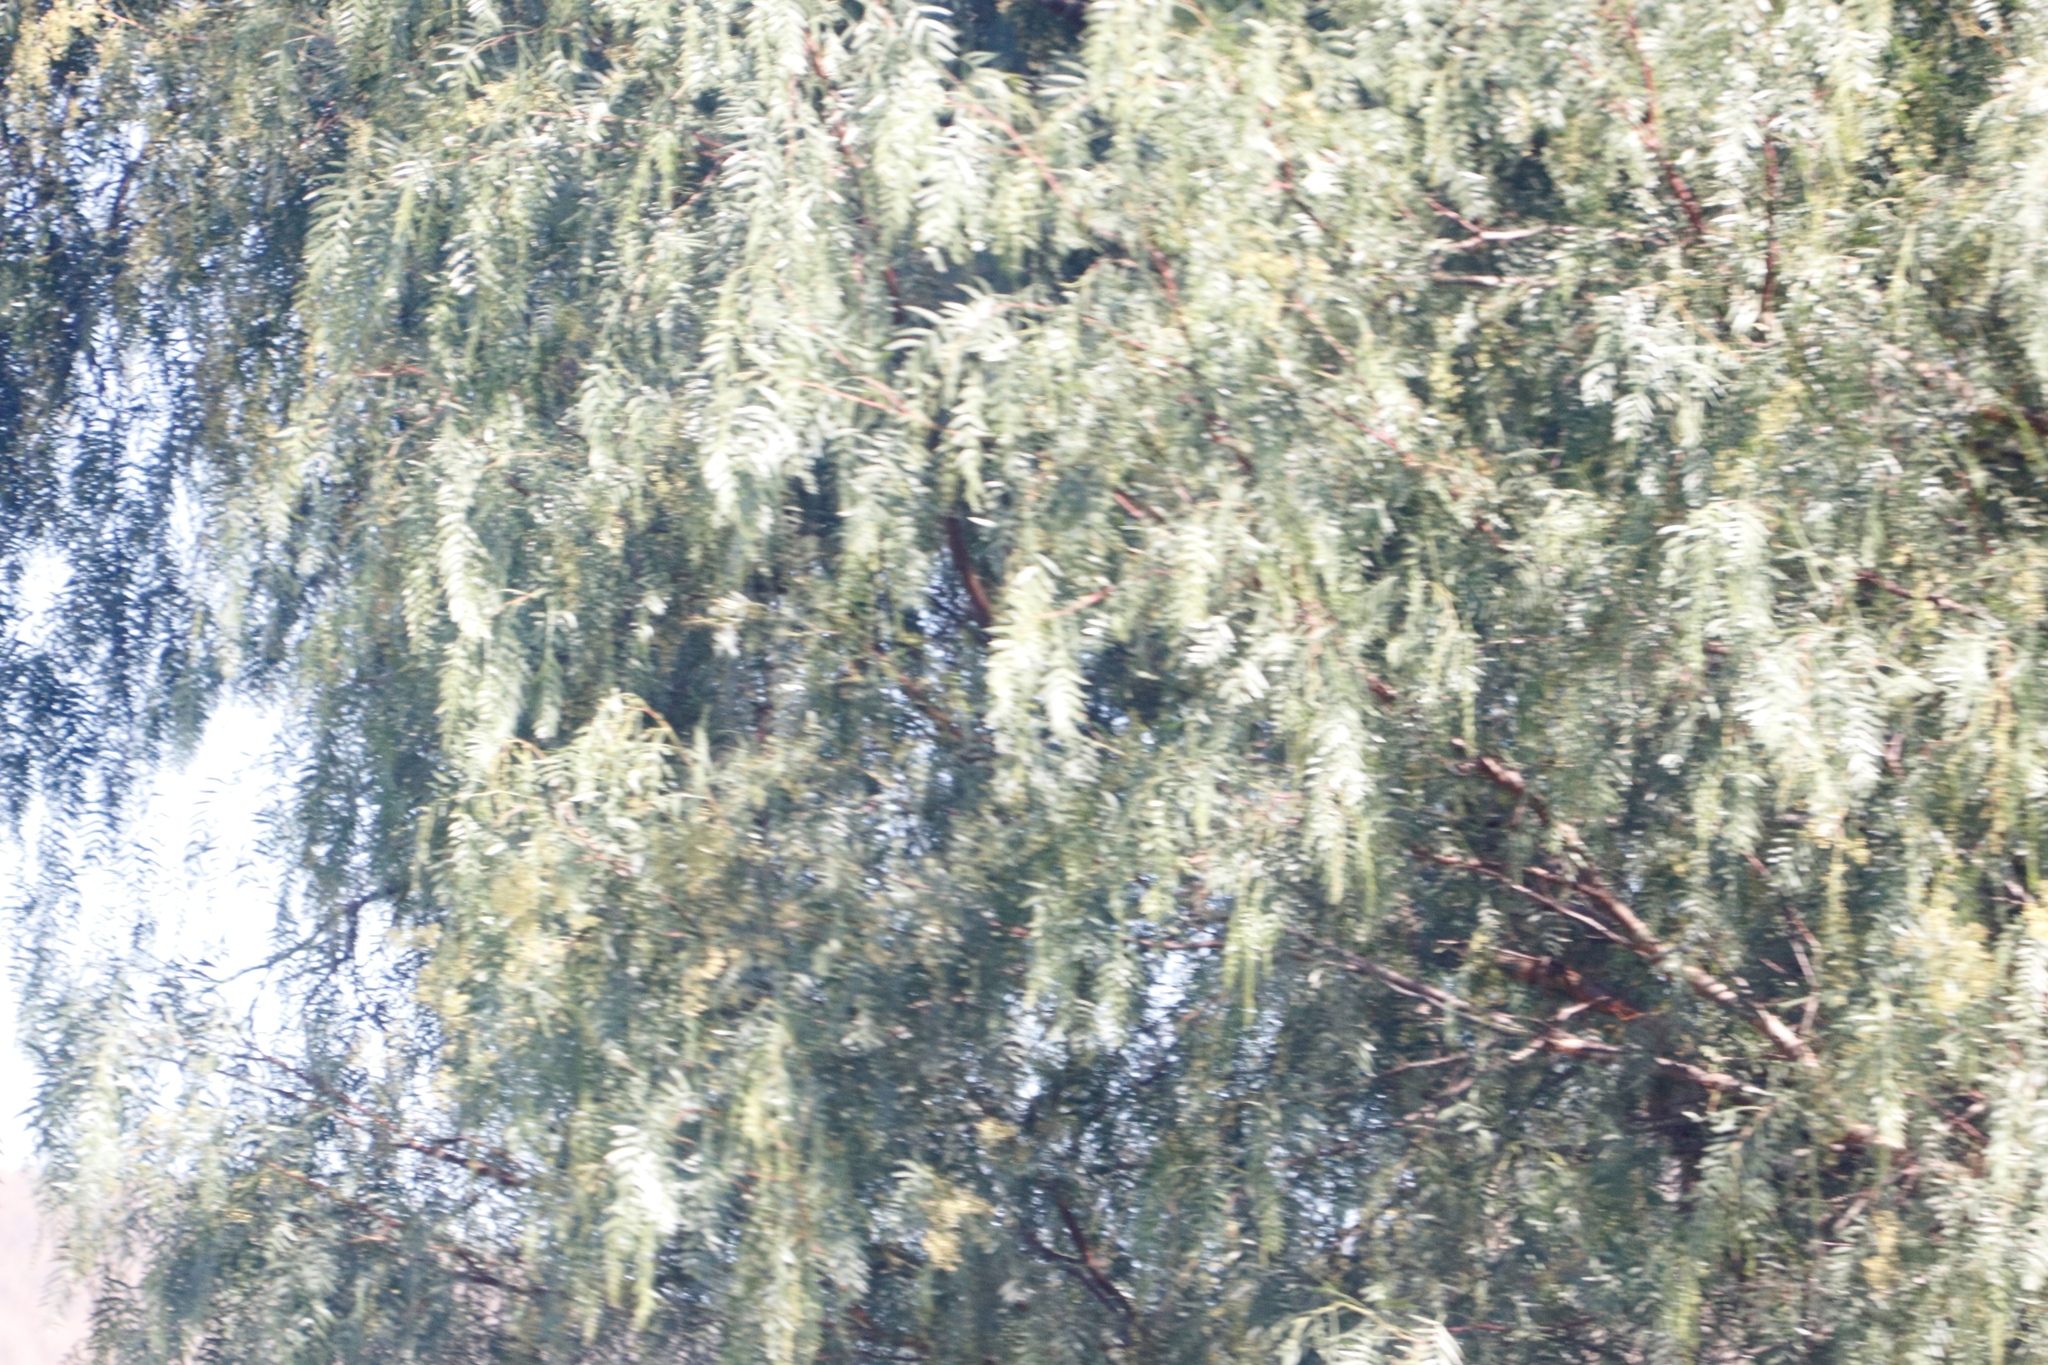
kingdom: Plantae
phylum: Tracheophyta
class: Magnoliopsida
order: Sapindales
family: Anacardiaceae
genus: Schinus
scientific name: Schinus molle
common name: Peruvian peppertree
